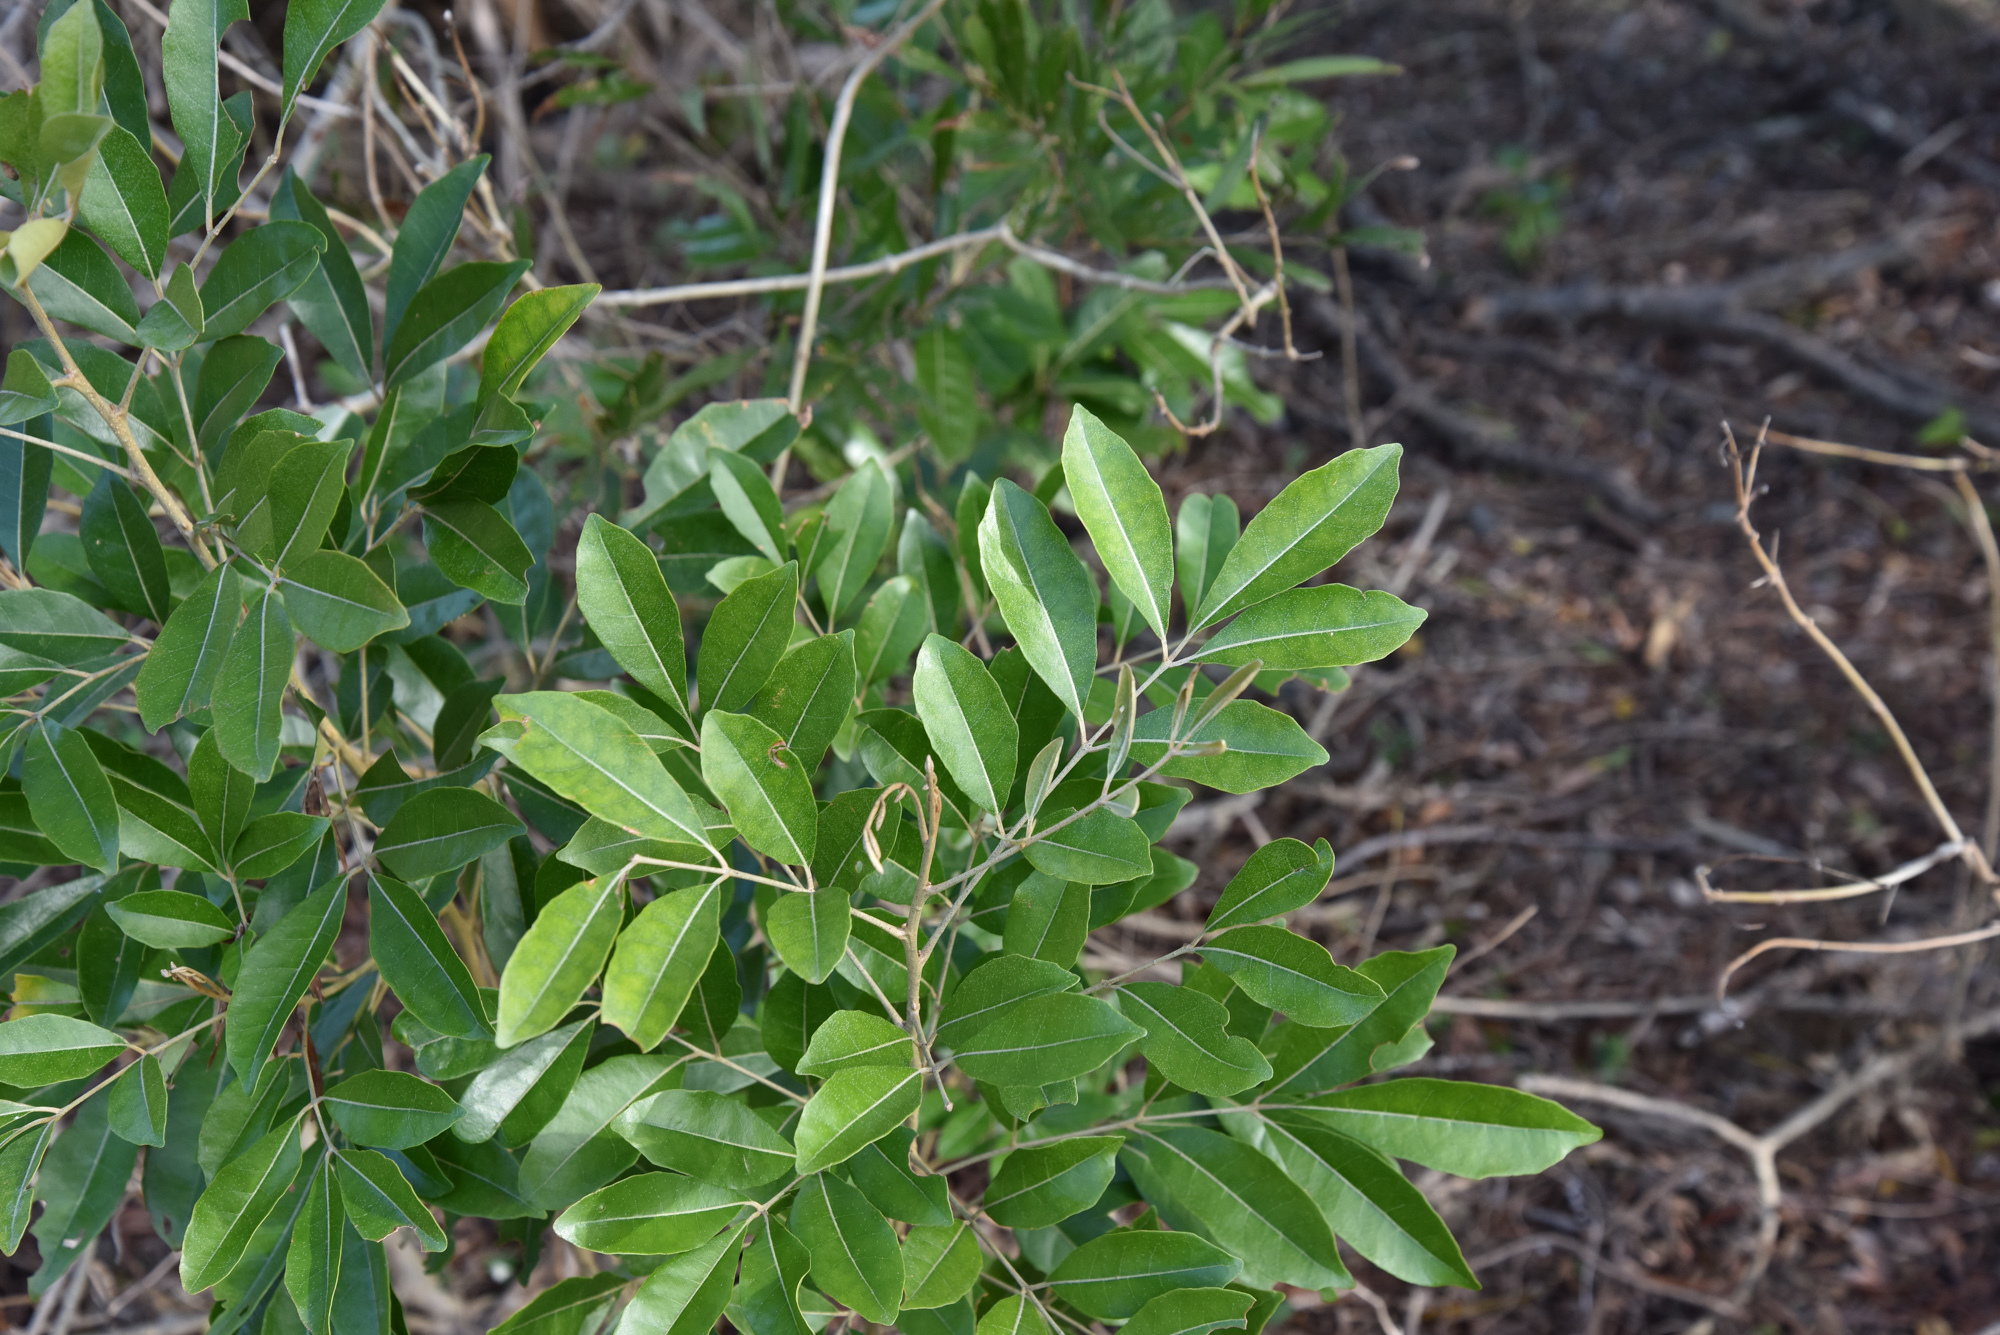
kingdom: Plantae
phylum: Tracheophyta
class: Magnoliopsida
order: Sapindales
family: Meliaceae
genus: Aglaia
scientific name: Aglaia elaeagnoidea
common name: Droopyleaf
